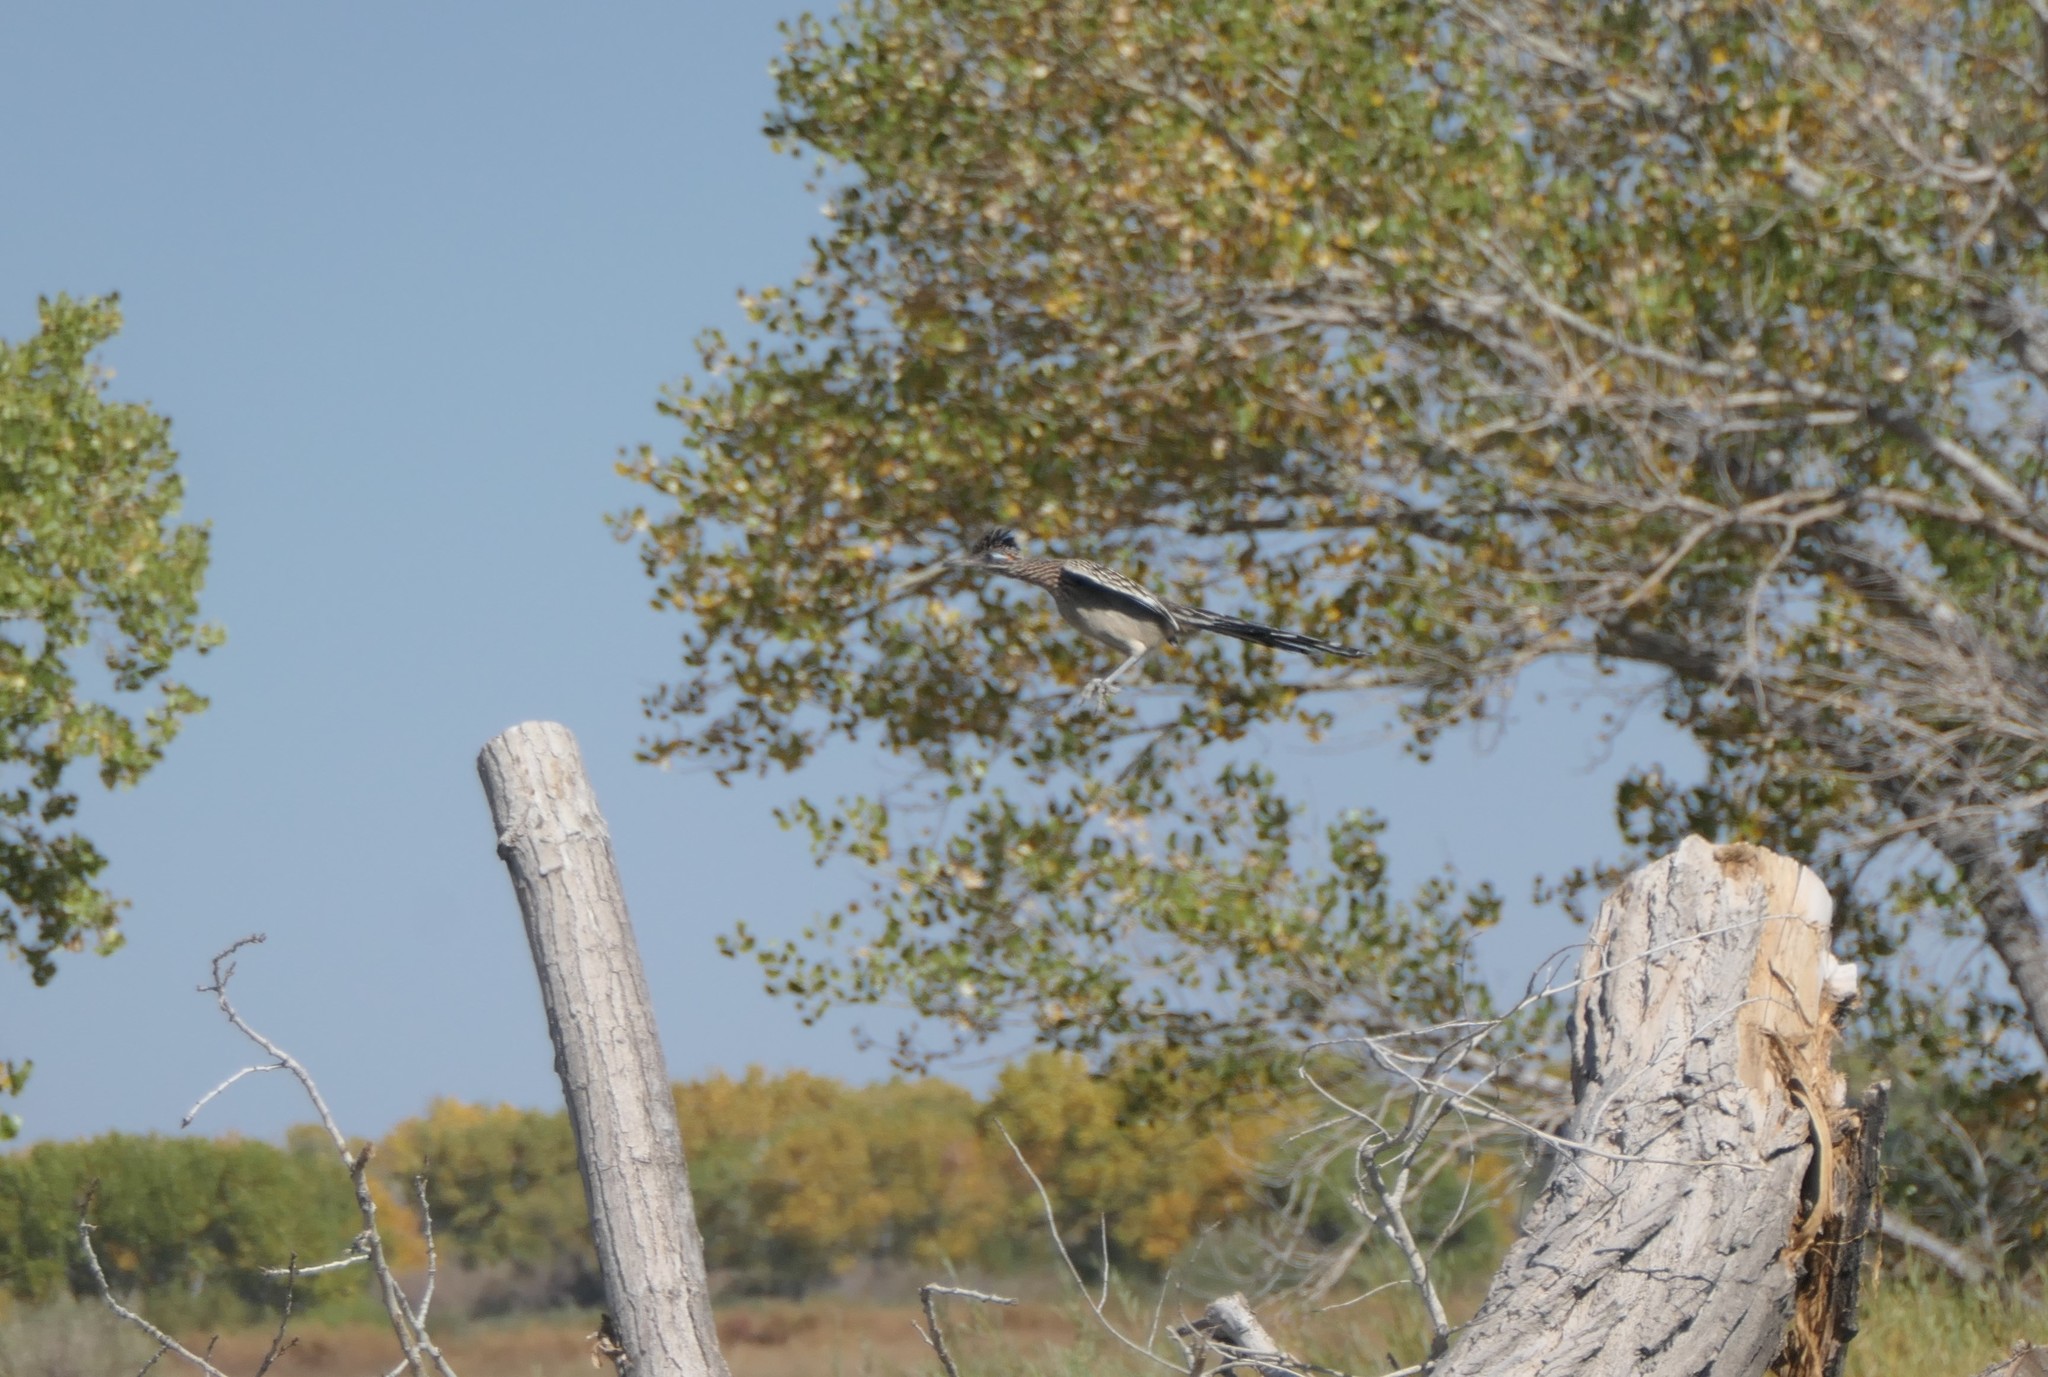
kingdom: Animalia
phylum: Chordata
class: Aves
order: Cuculiformes
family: Cuculidae
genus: Geococcyx
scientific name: Geococcyx californianus
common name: Greater roadrunner
